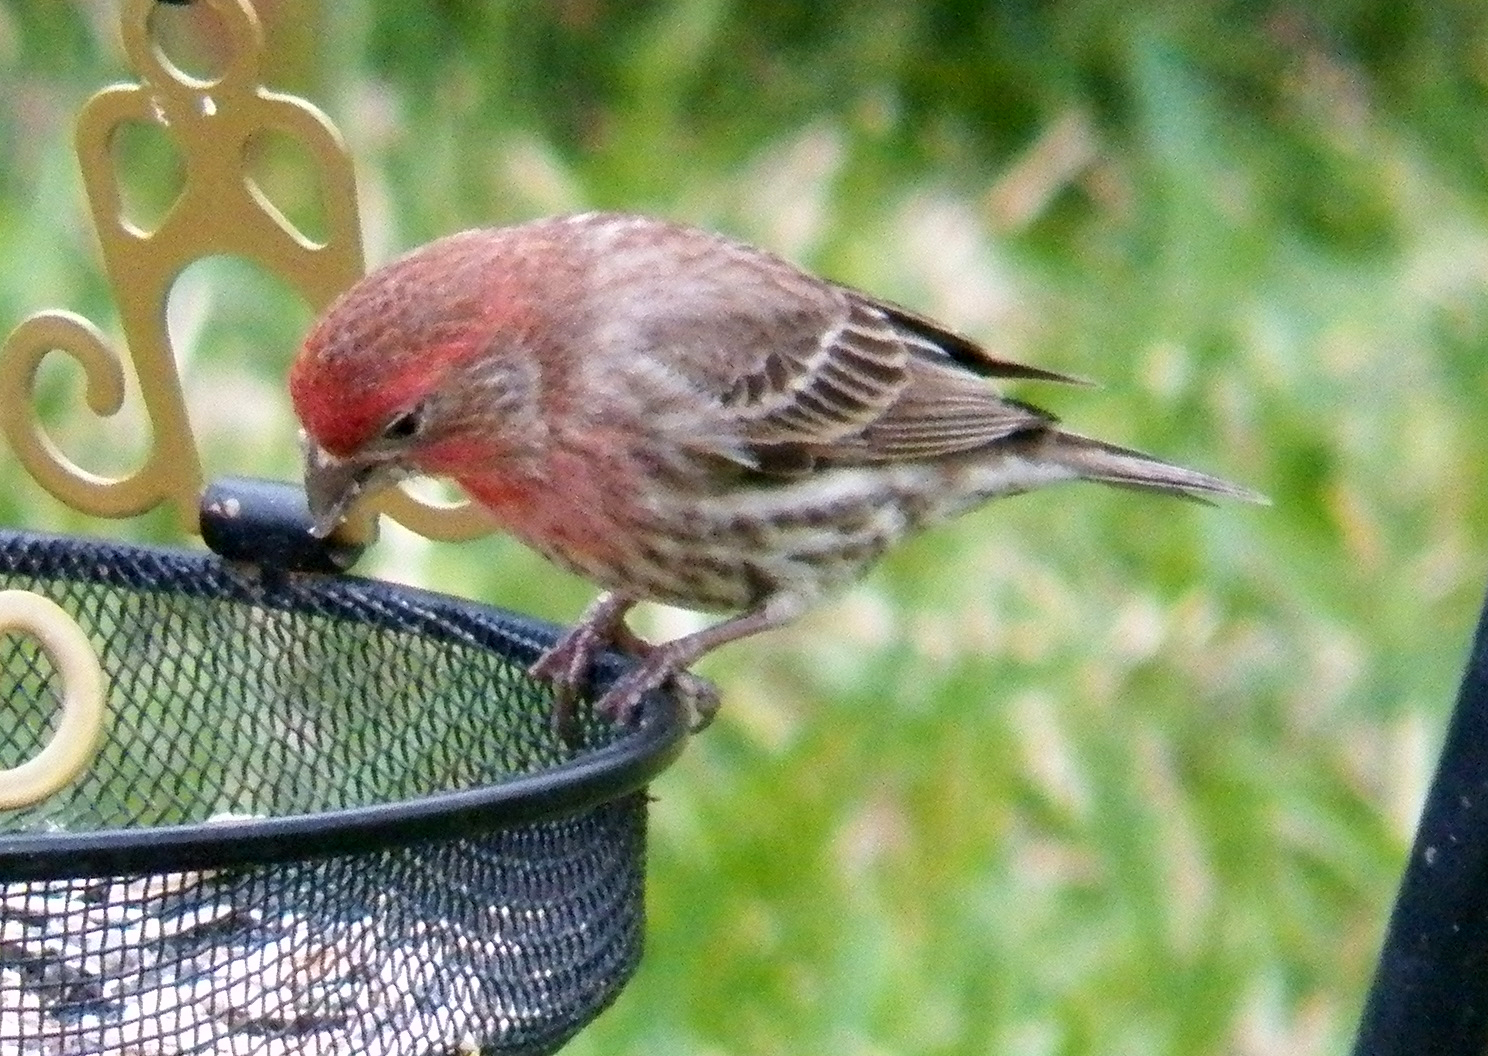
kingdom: Animalia
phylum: Chordata
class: Aves
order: Passeriformes
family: Fringillidae
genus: Haemorhous
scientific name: Haemorhous mexicanus
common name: House finch
